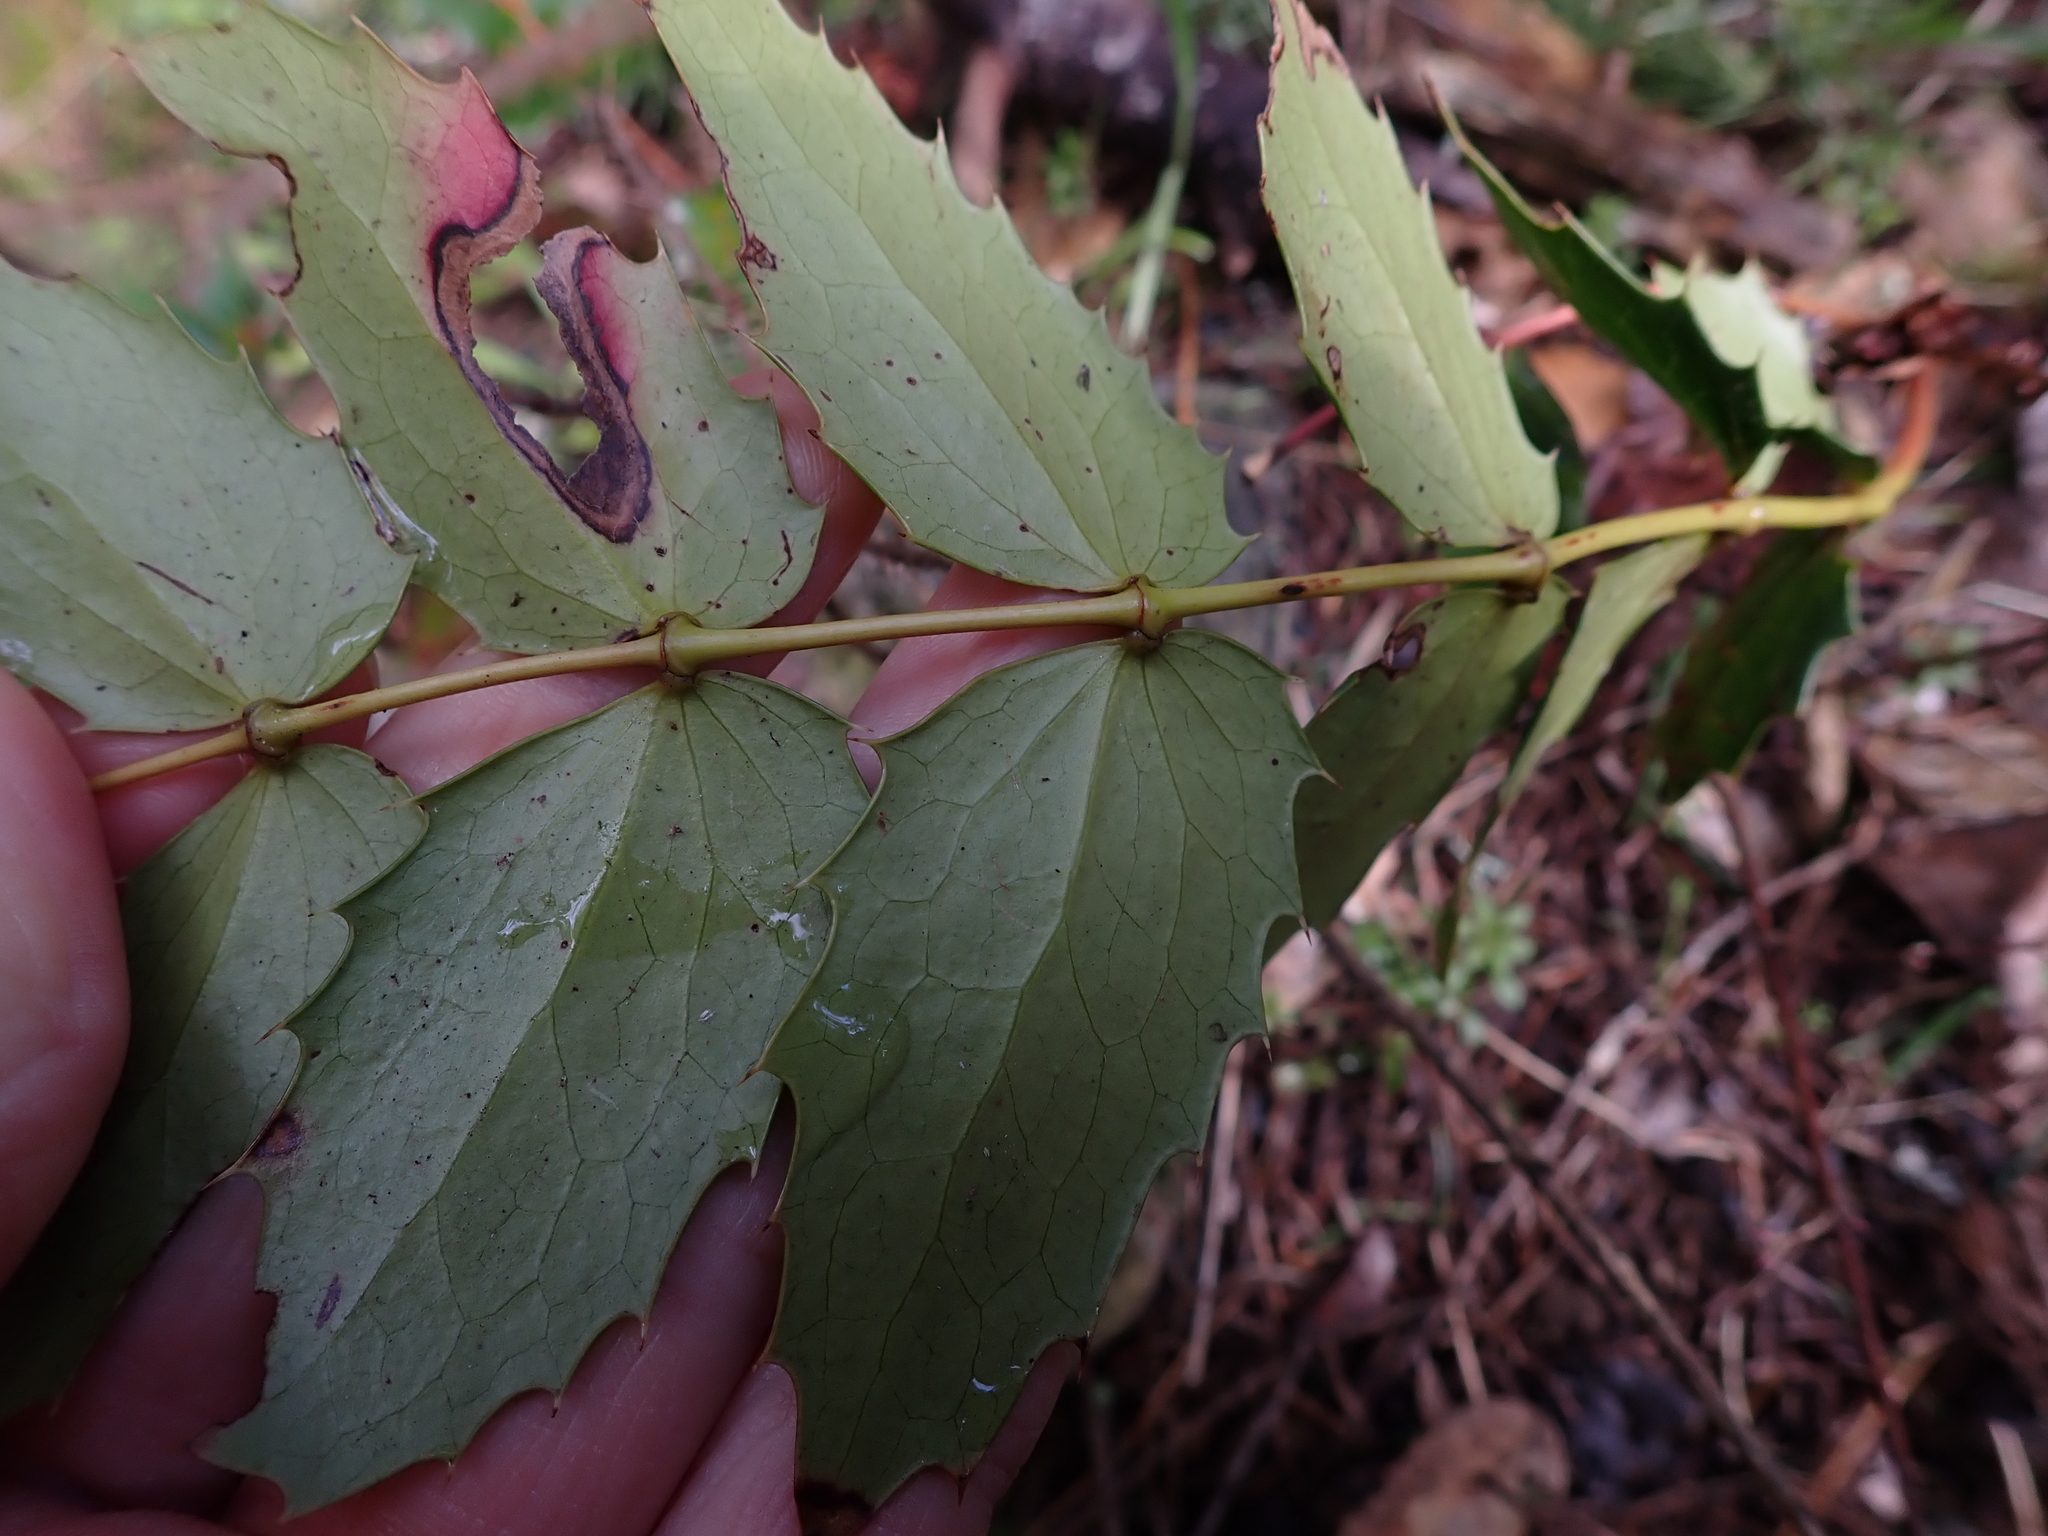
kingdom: Plantae
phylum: Tracheophyta
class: Magnoliopsida
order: Ranunculales
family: Berberidaceae
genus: Mahonia
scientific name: Mahonia nervosa
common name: Cascade oregon-grape
